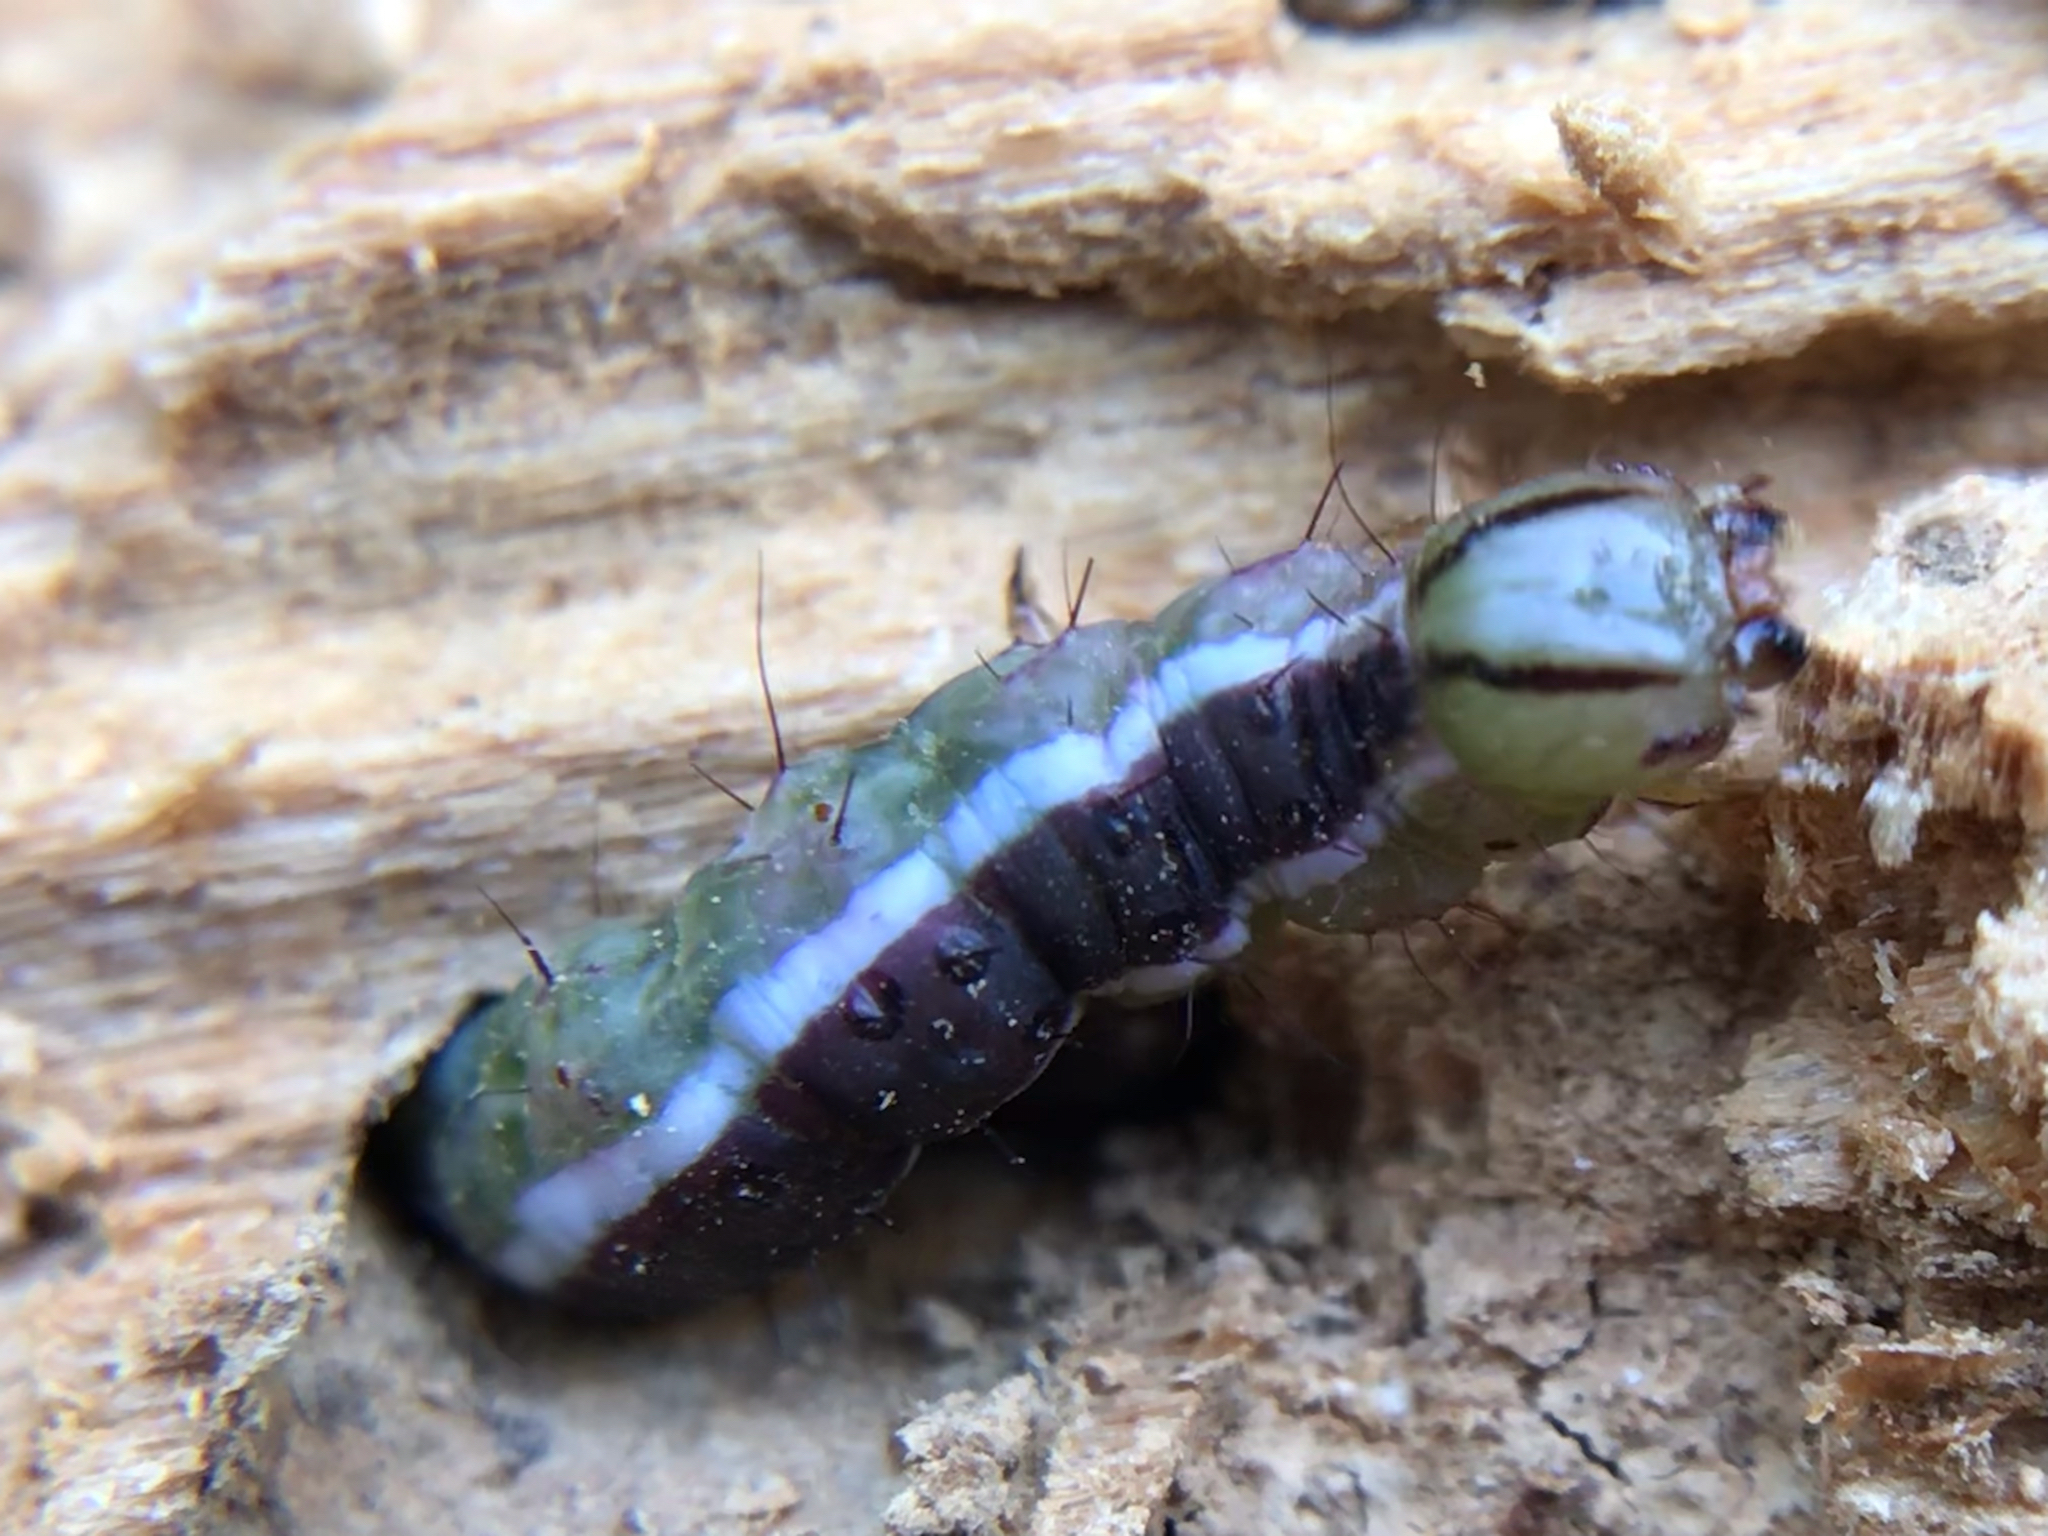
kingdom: Animalia
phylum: Arthropoda
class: Insecta
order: Lepidoptera
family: Noctuidae
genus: Cerma
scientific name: Cerma cerintha
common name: Tufted bird-dropping moth
